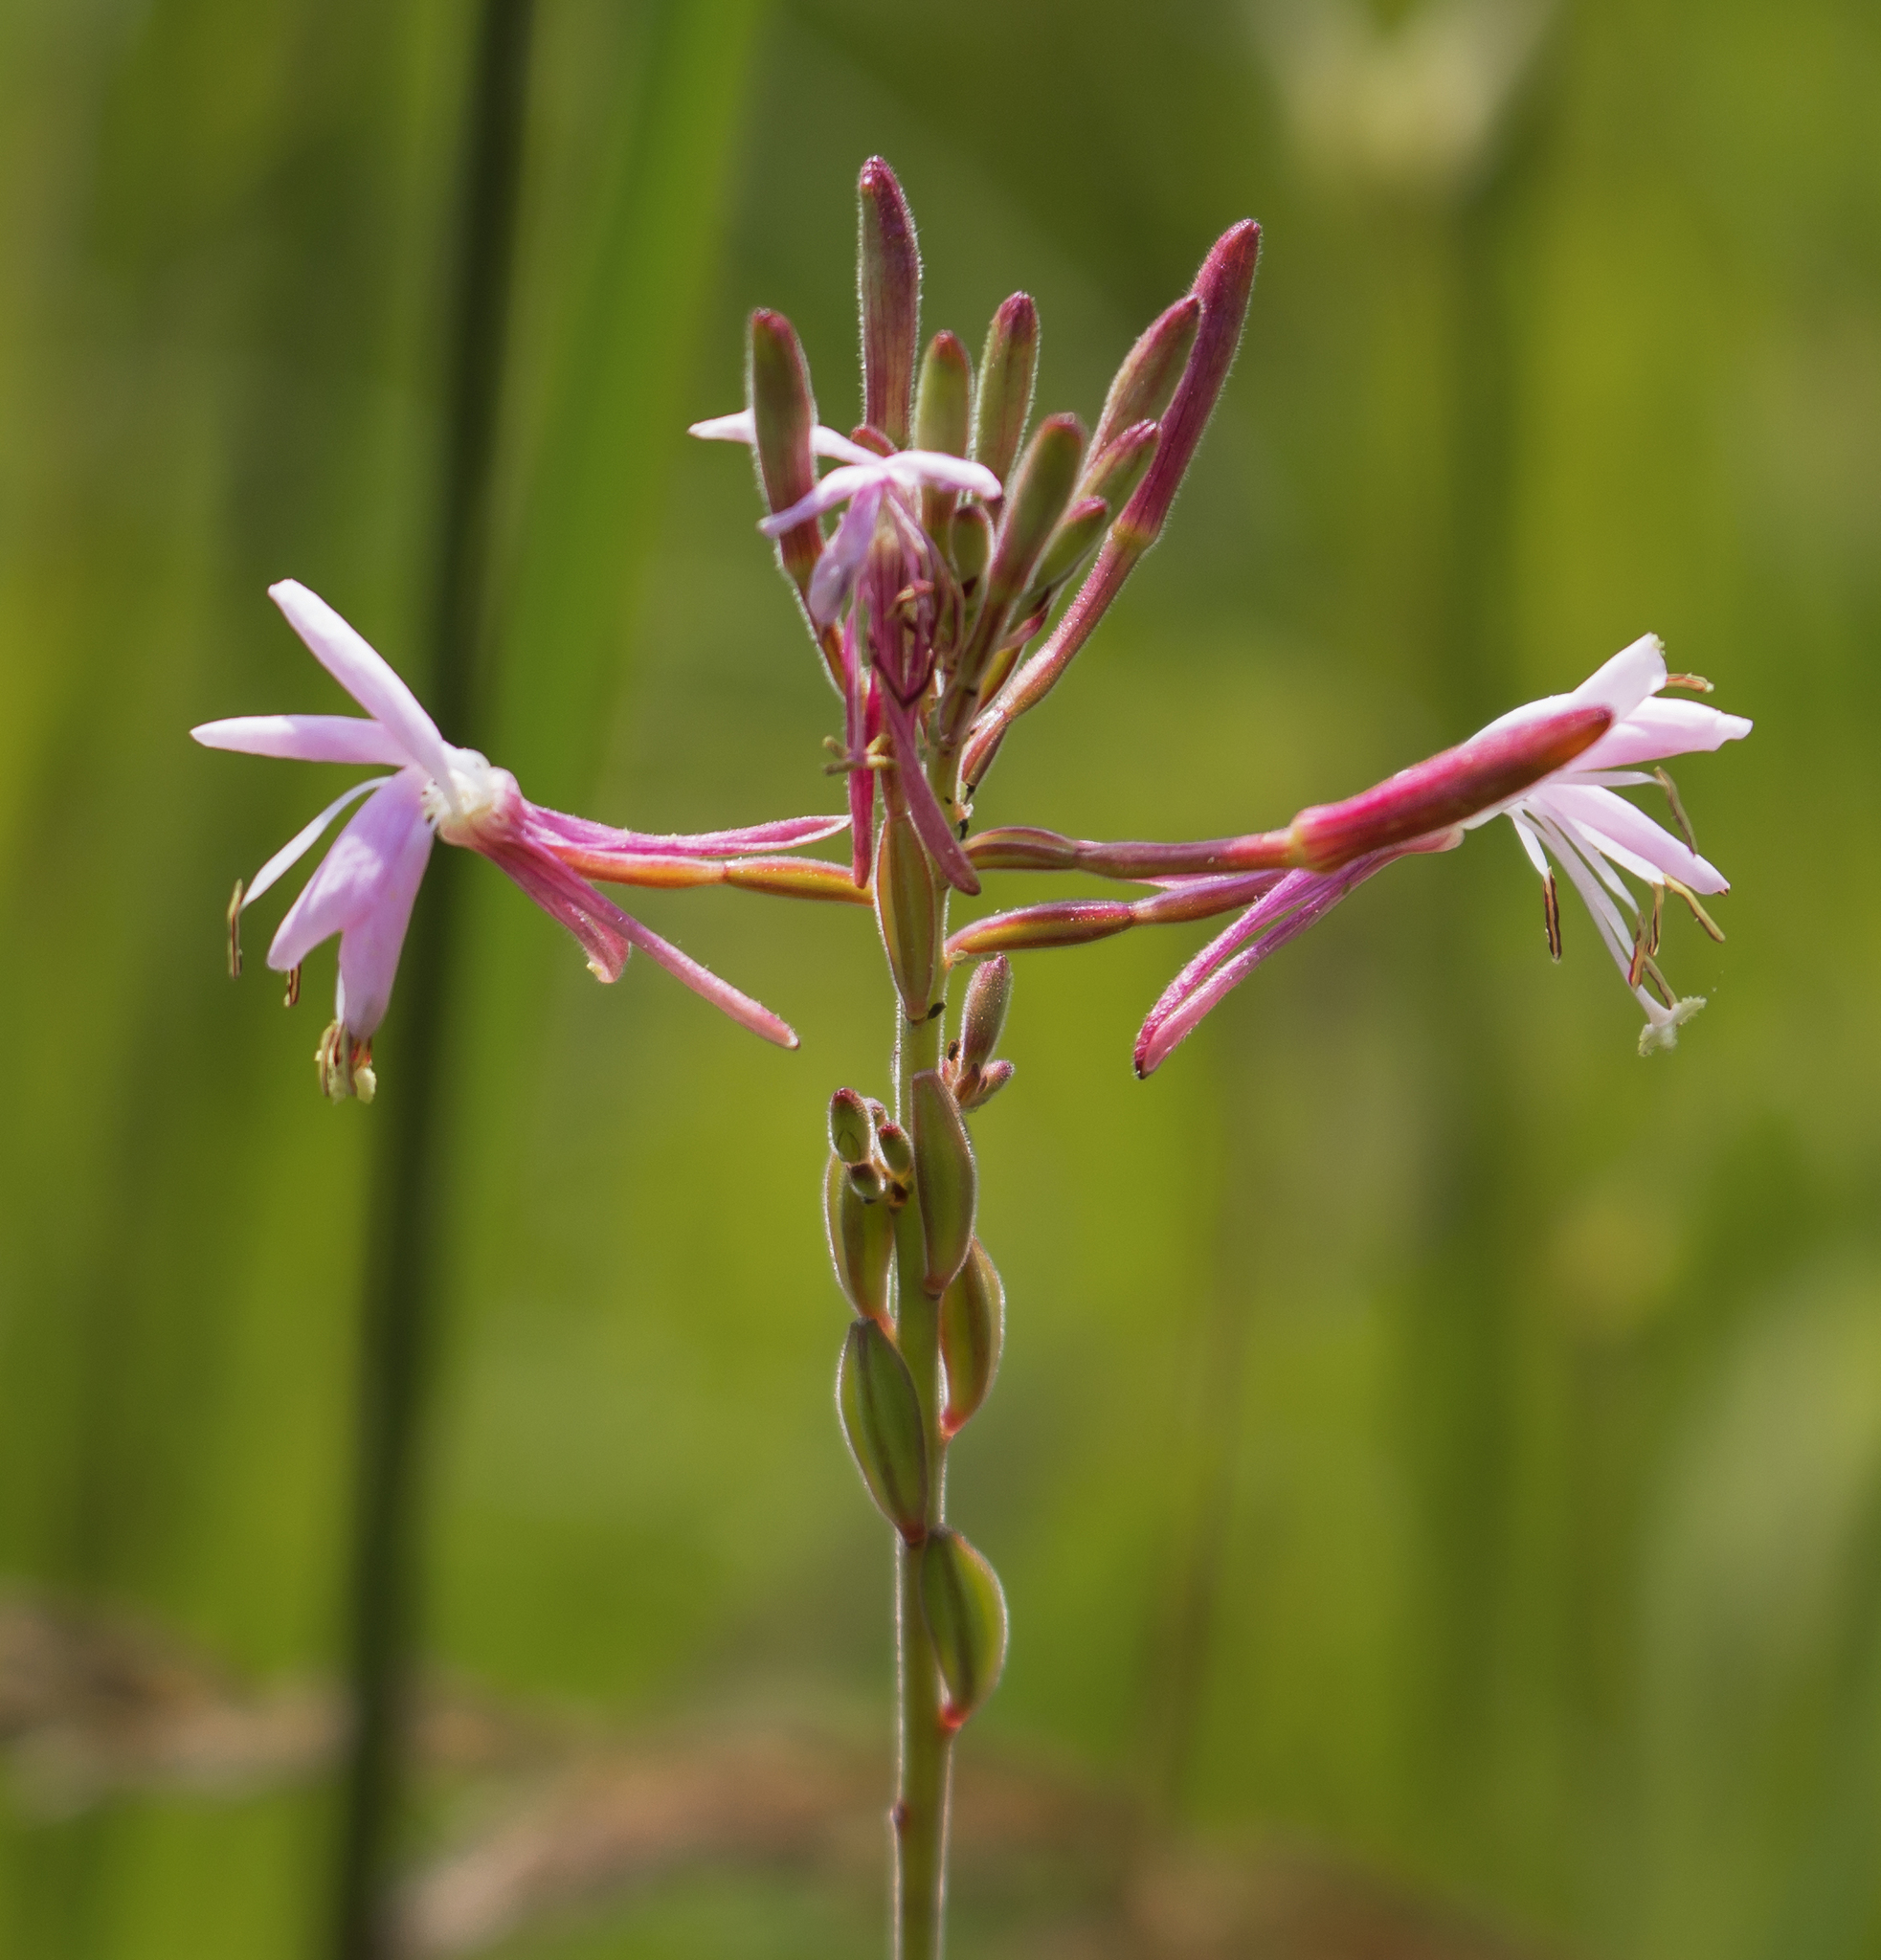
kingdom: Plantae
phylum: Tracheophyta
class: Magnoliopsida
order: Myrtales
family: Onagraceae
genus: Oenothera
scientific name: Oenothera gaura
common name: Biennial beeblossom
